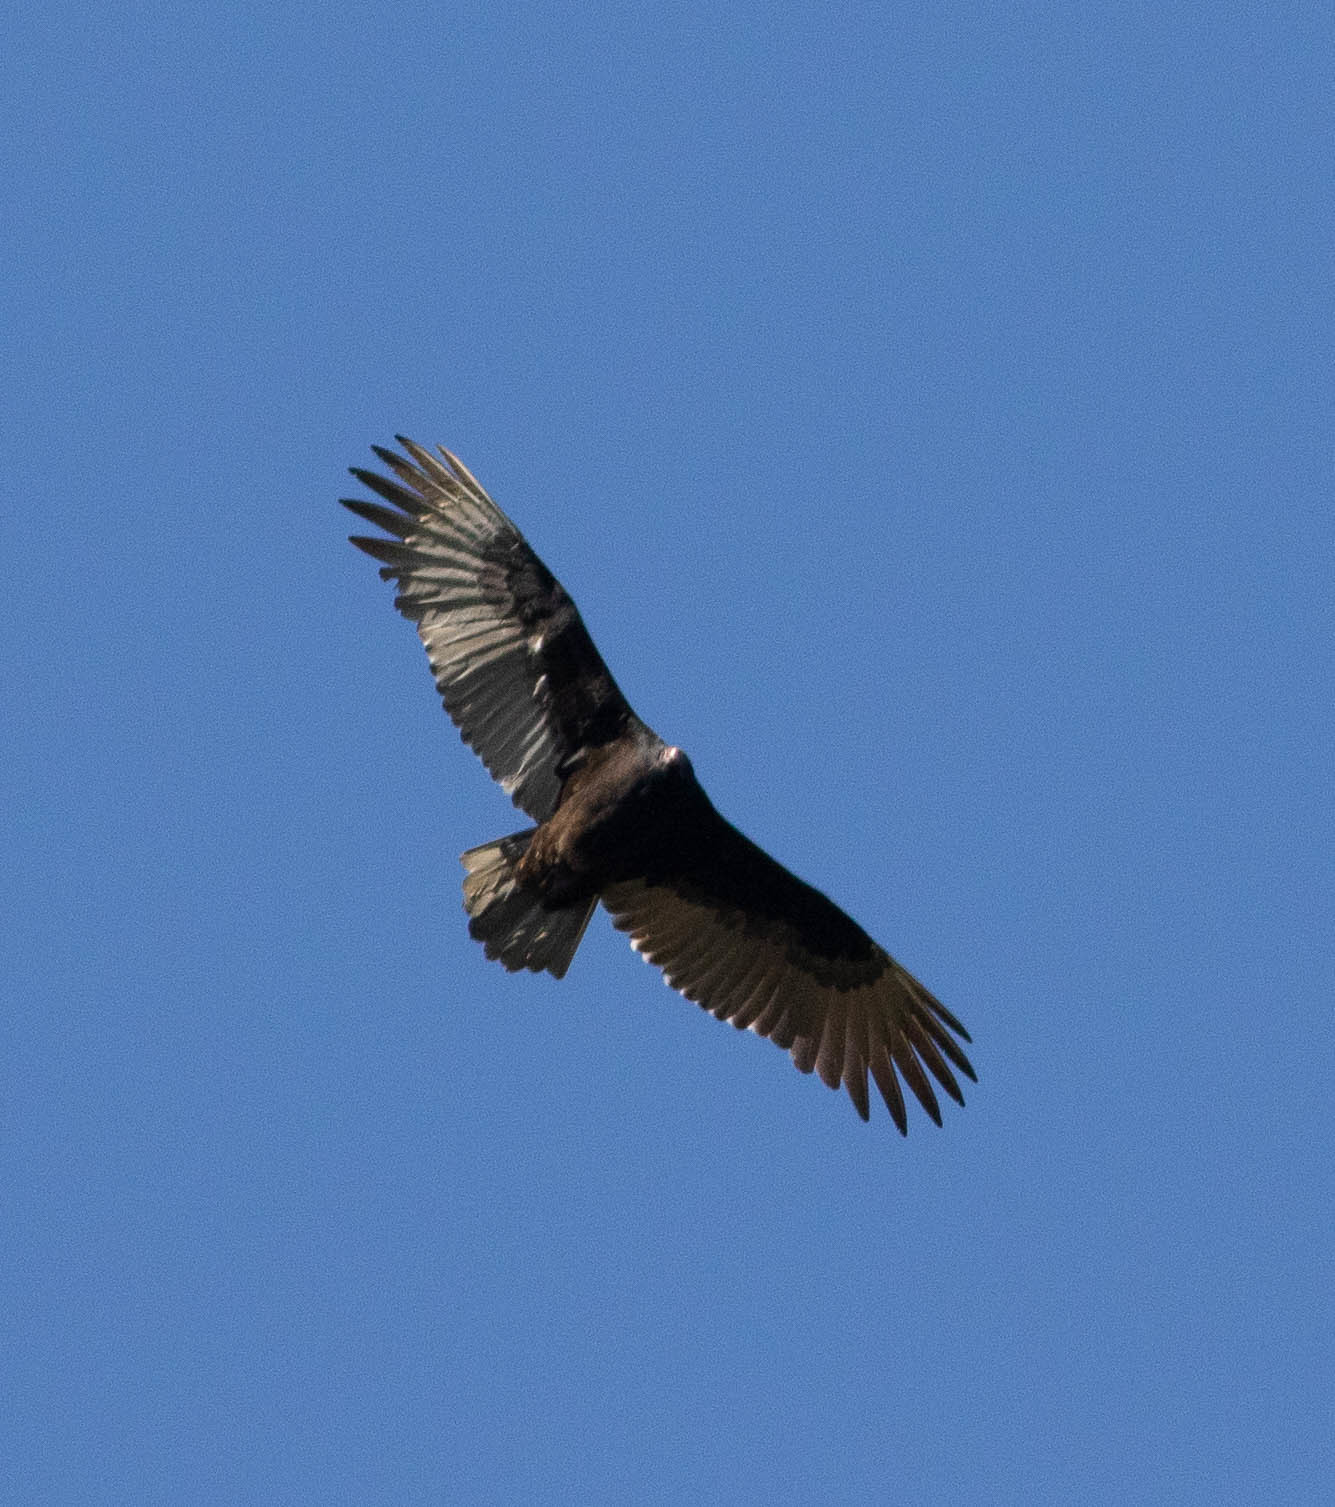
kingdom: Animalia
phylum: Chordata
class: Aves
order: Accipitriformes
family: Cathartidae
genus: Cathartes
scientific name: Cathartes aura
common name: Turkey vulture
